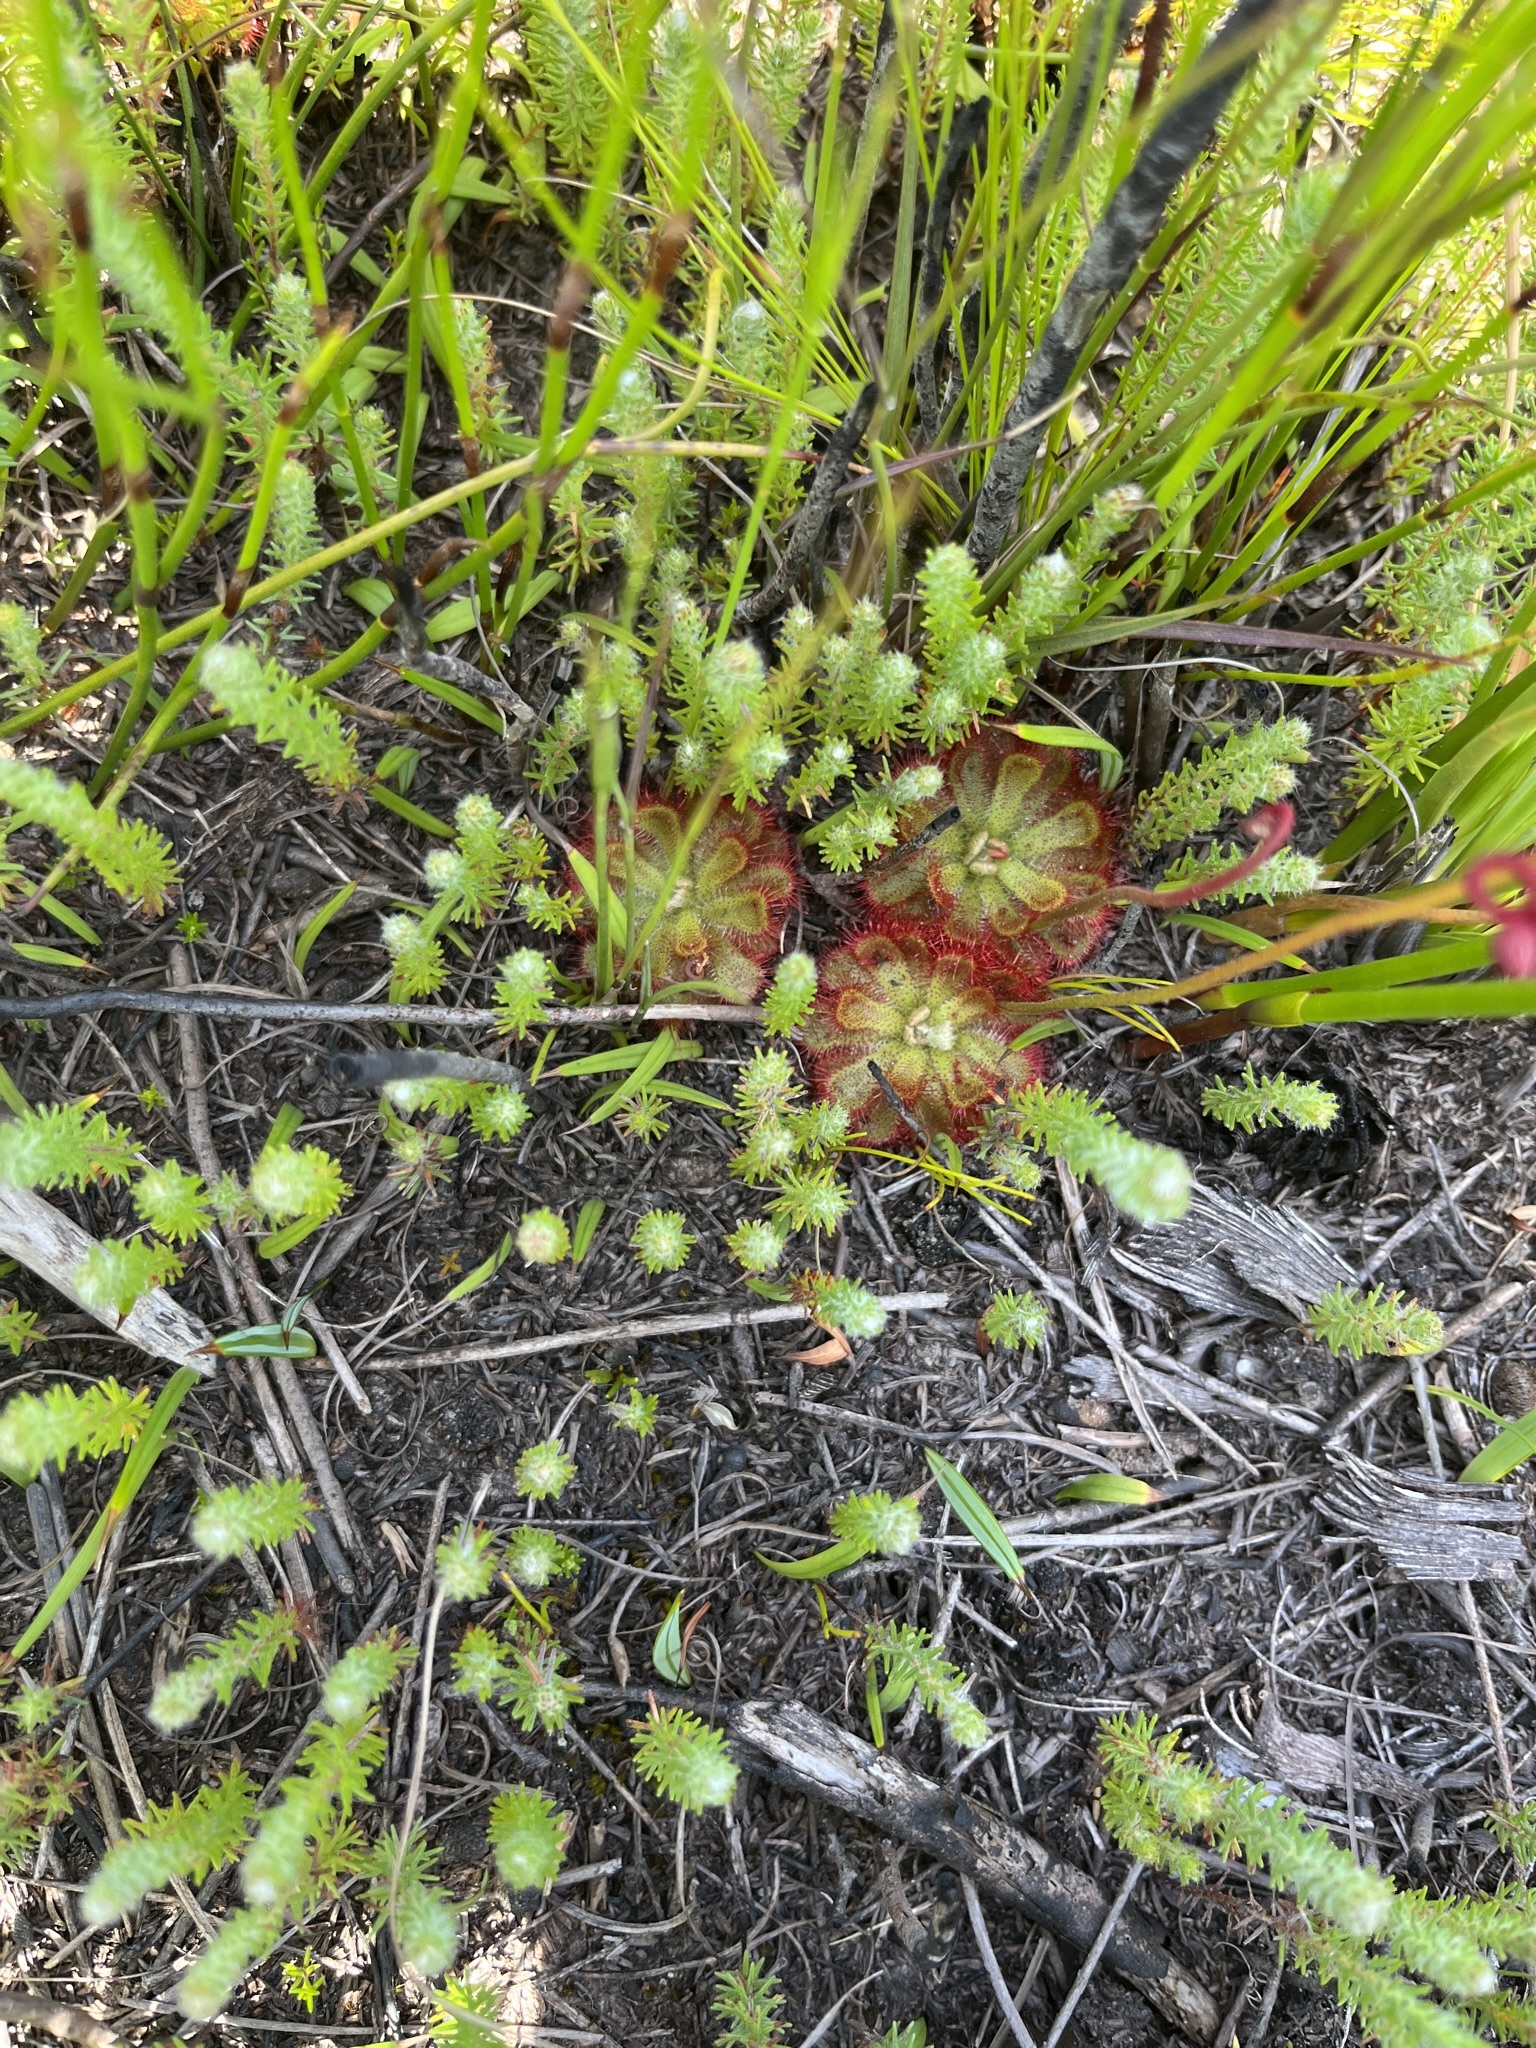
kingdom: Plantae
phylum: Tracheophyta
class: Magnoliopsida
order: Caryophyllales
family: Droseraceae
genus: Drosera
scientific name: Drosera aliciae
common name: Alice sundew
